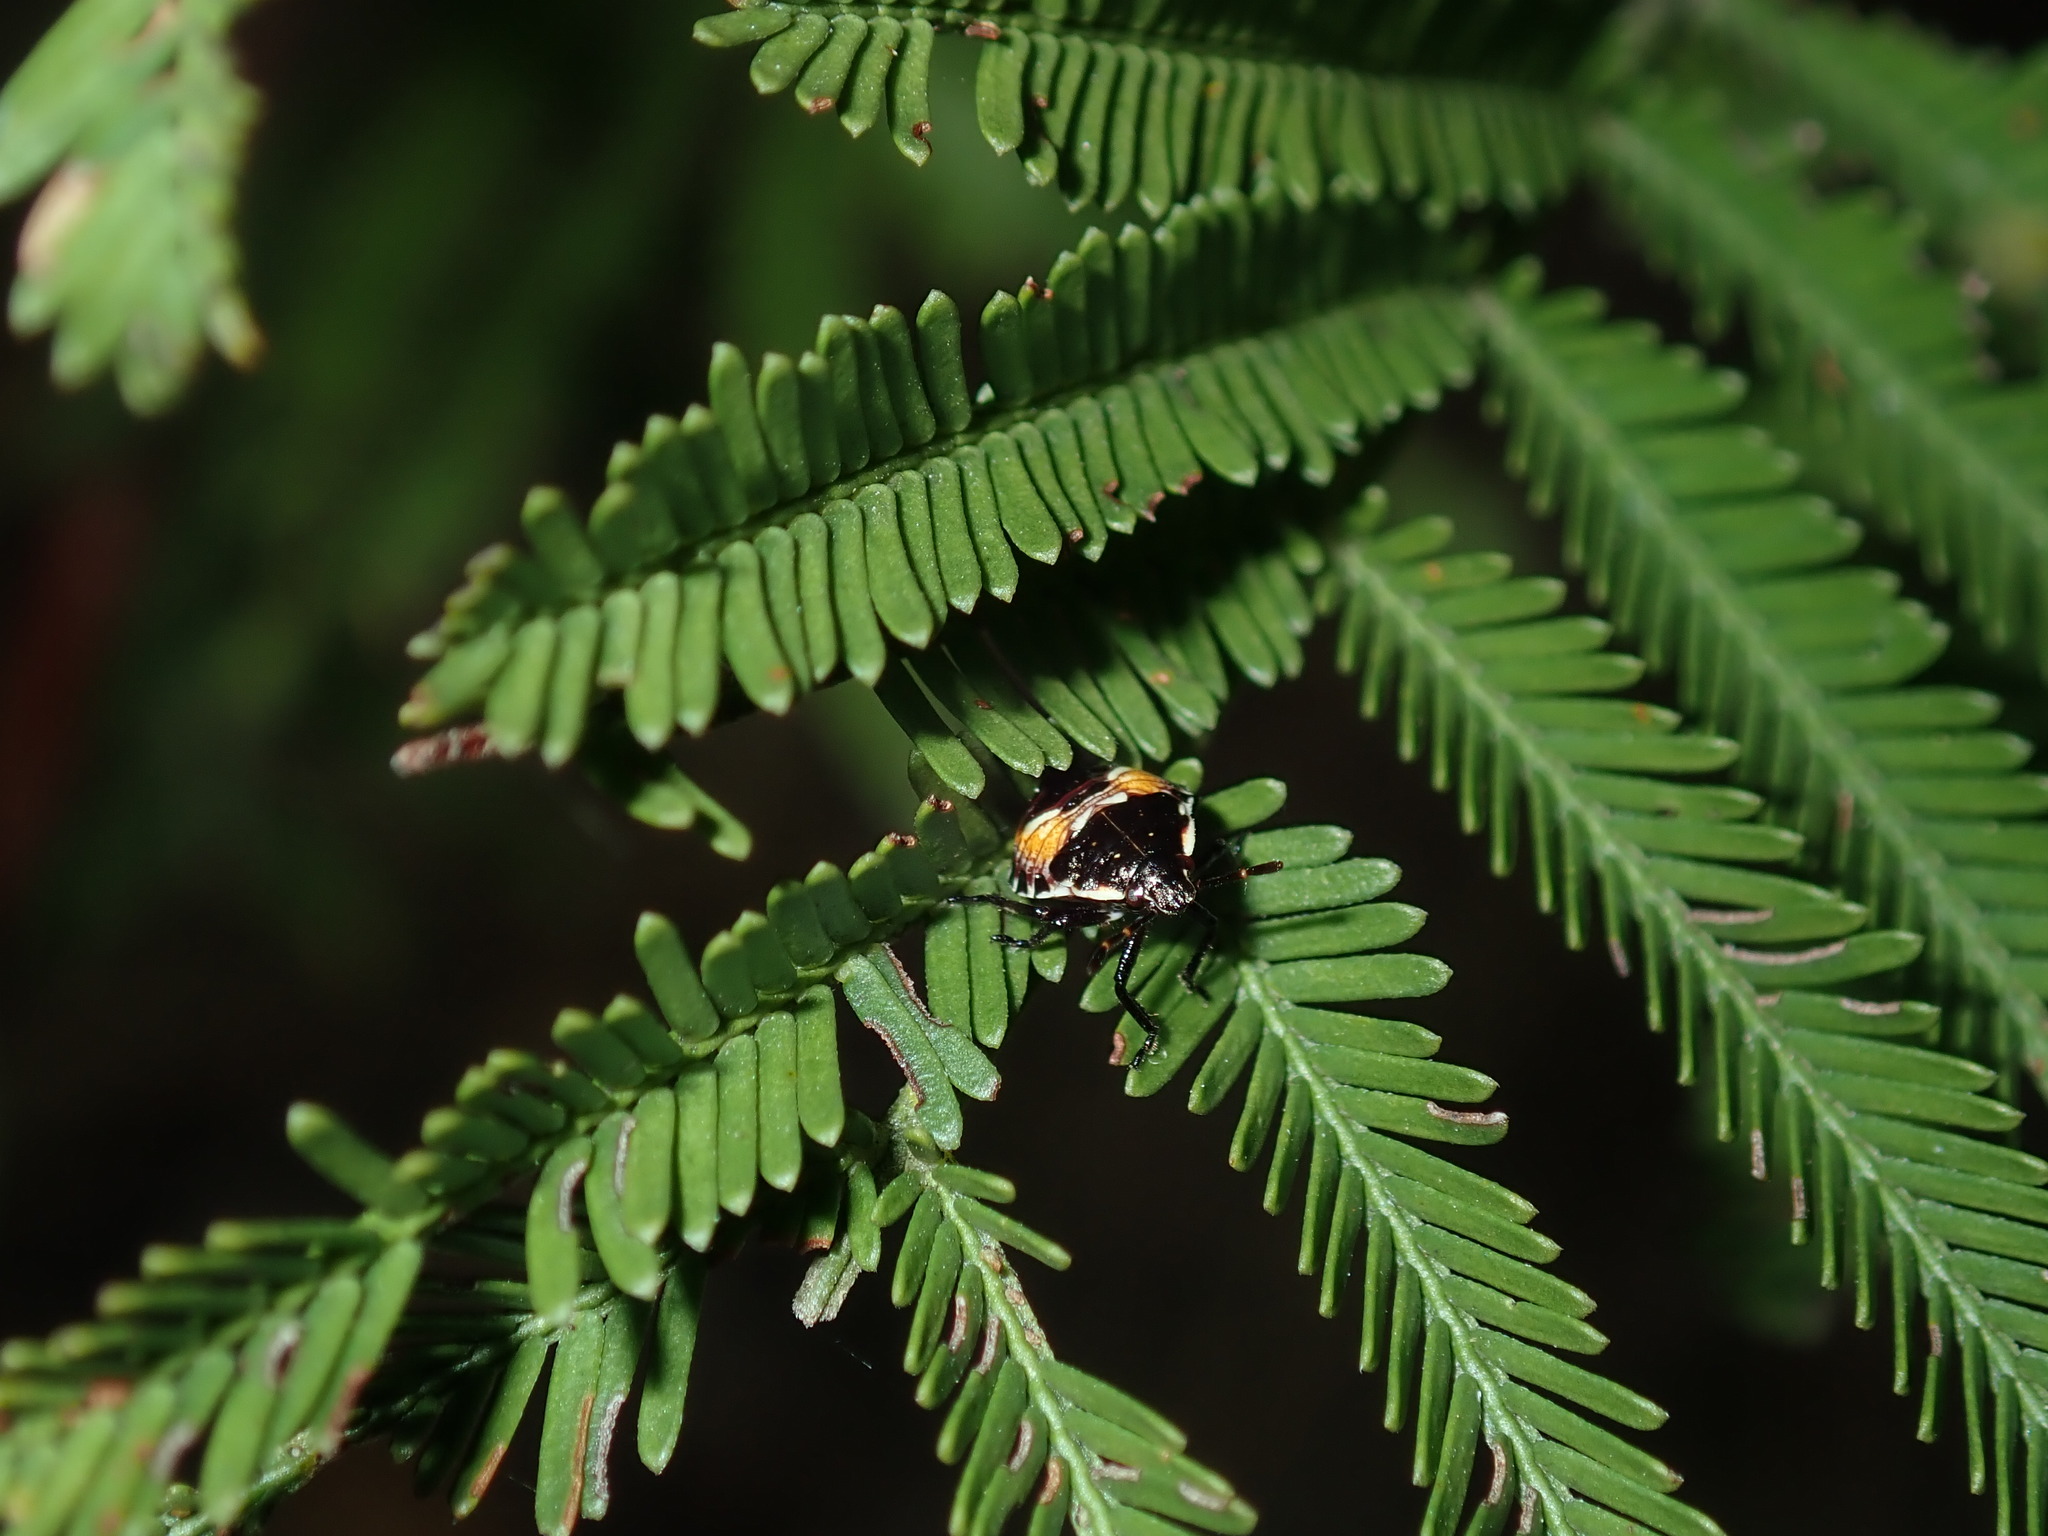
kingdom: Animalia
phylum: Arthropoda
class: Insecta
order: Hemiptera
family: Pentatomidae
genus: Oechalia
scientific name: Oechalia schellenbergii
